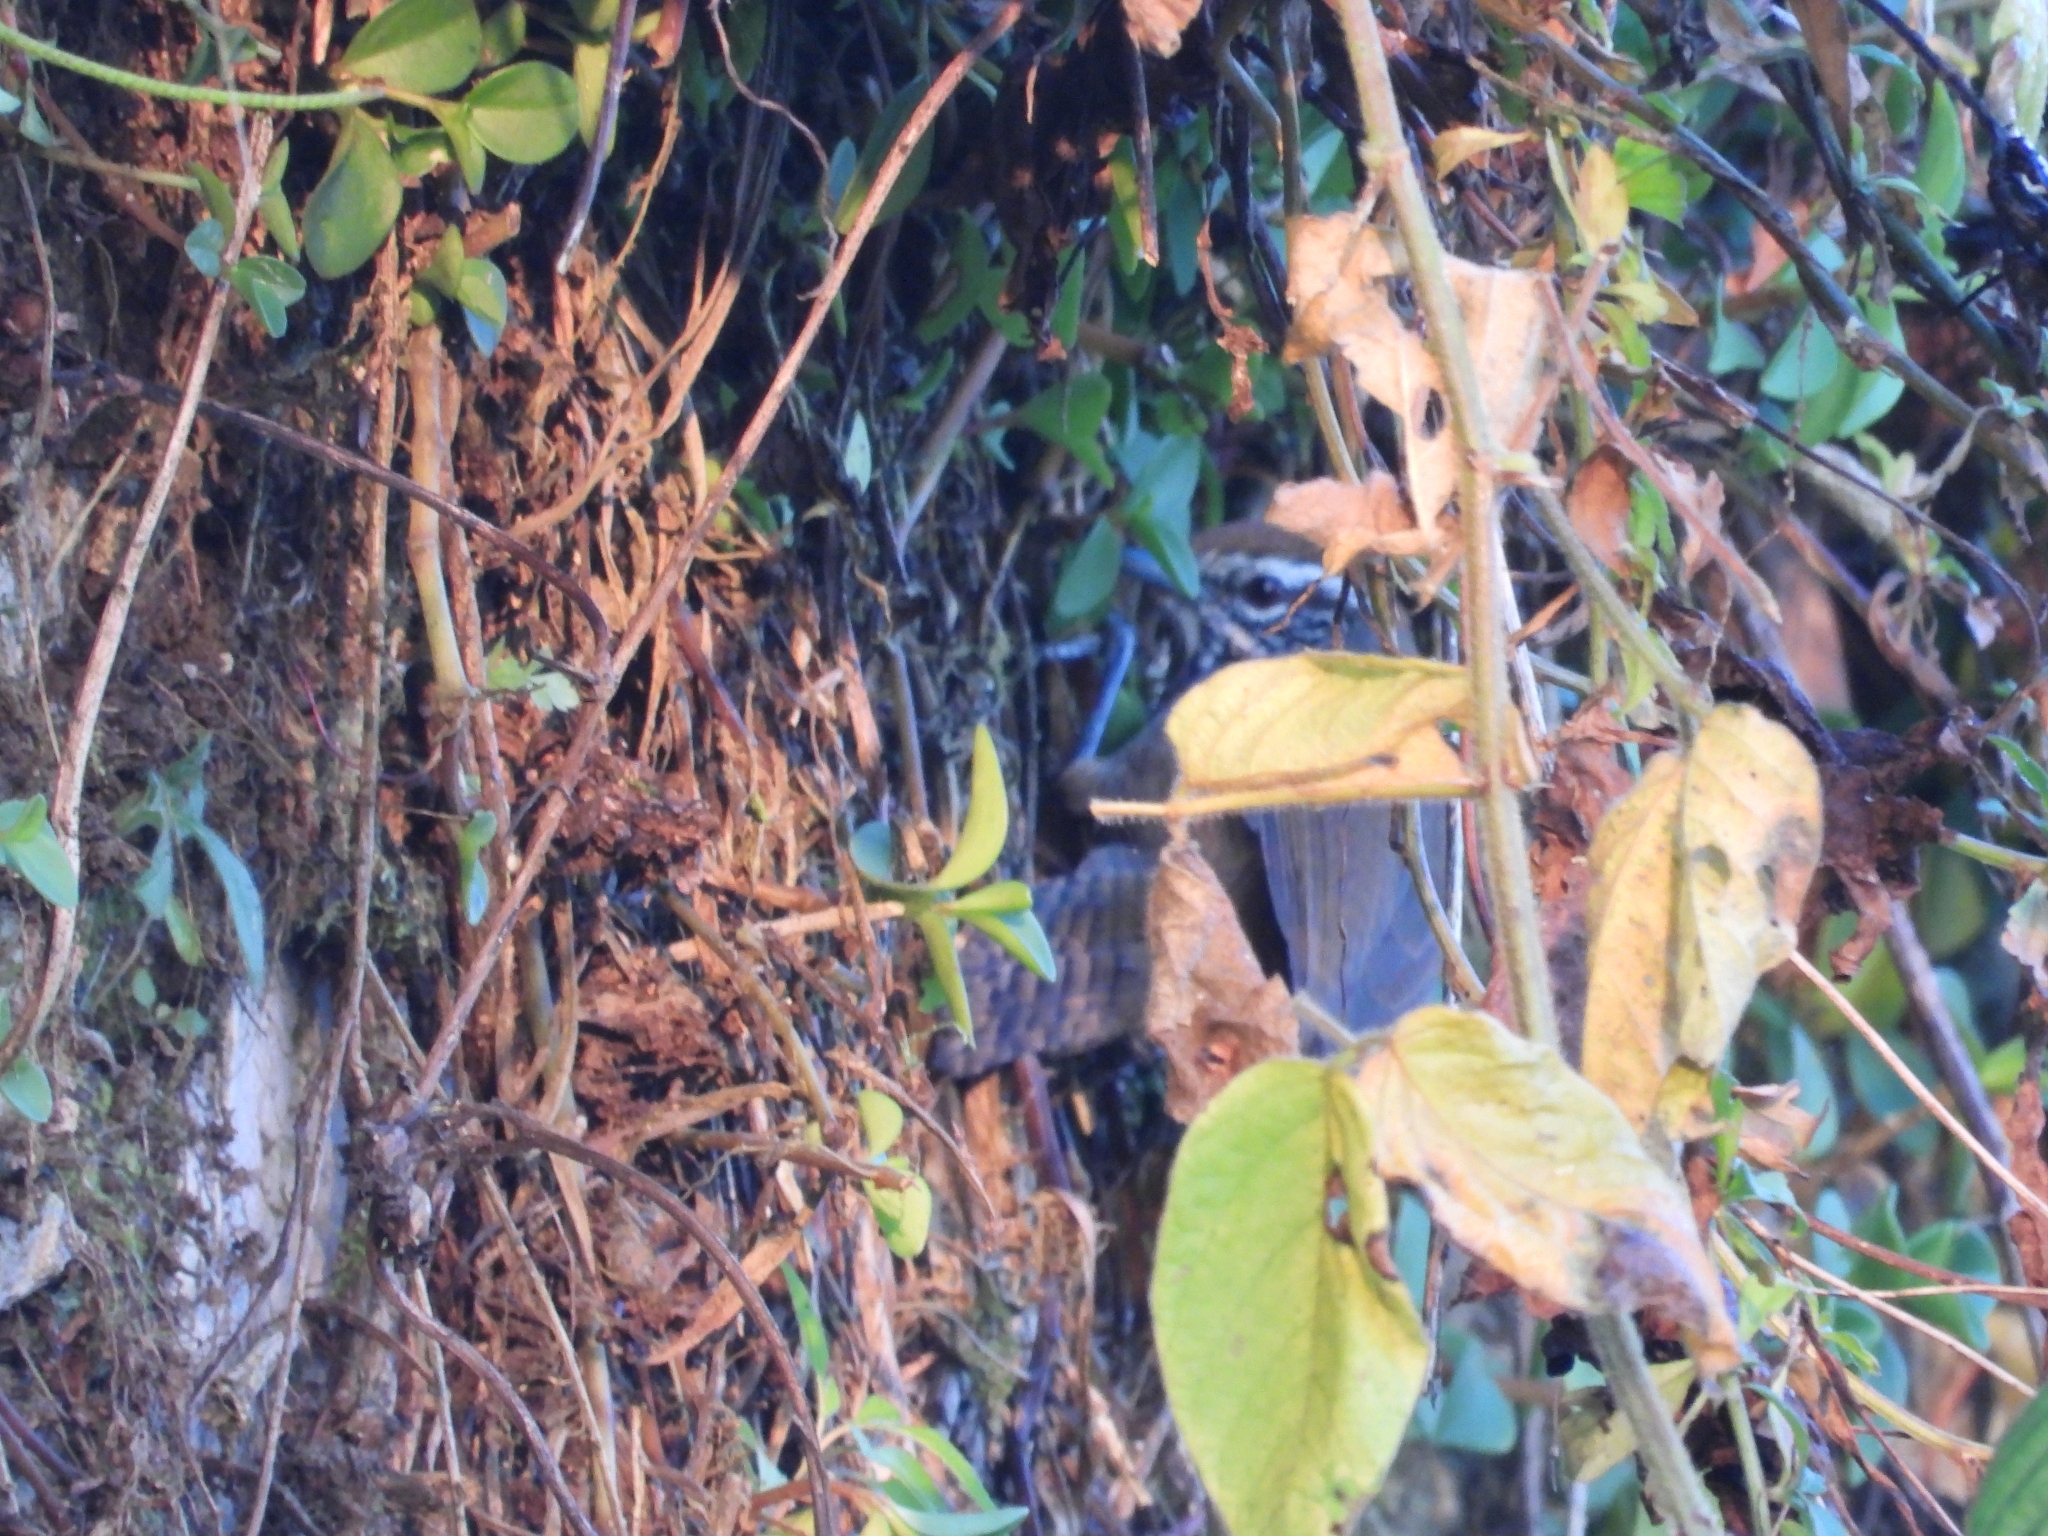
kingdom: Animalia
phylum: Chordata
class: Aves
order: Passeriformes
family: Troglodytidae
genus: Pheugopedius
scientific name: Pheugopedius maculipectus
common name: Spot-breasted wren
